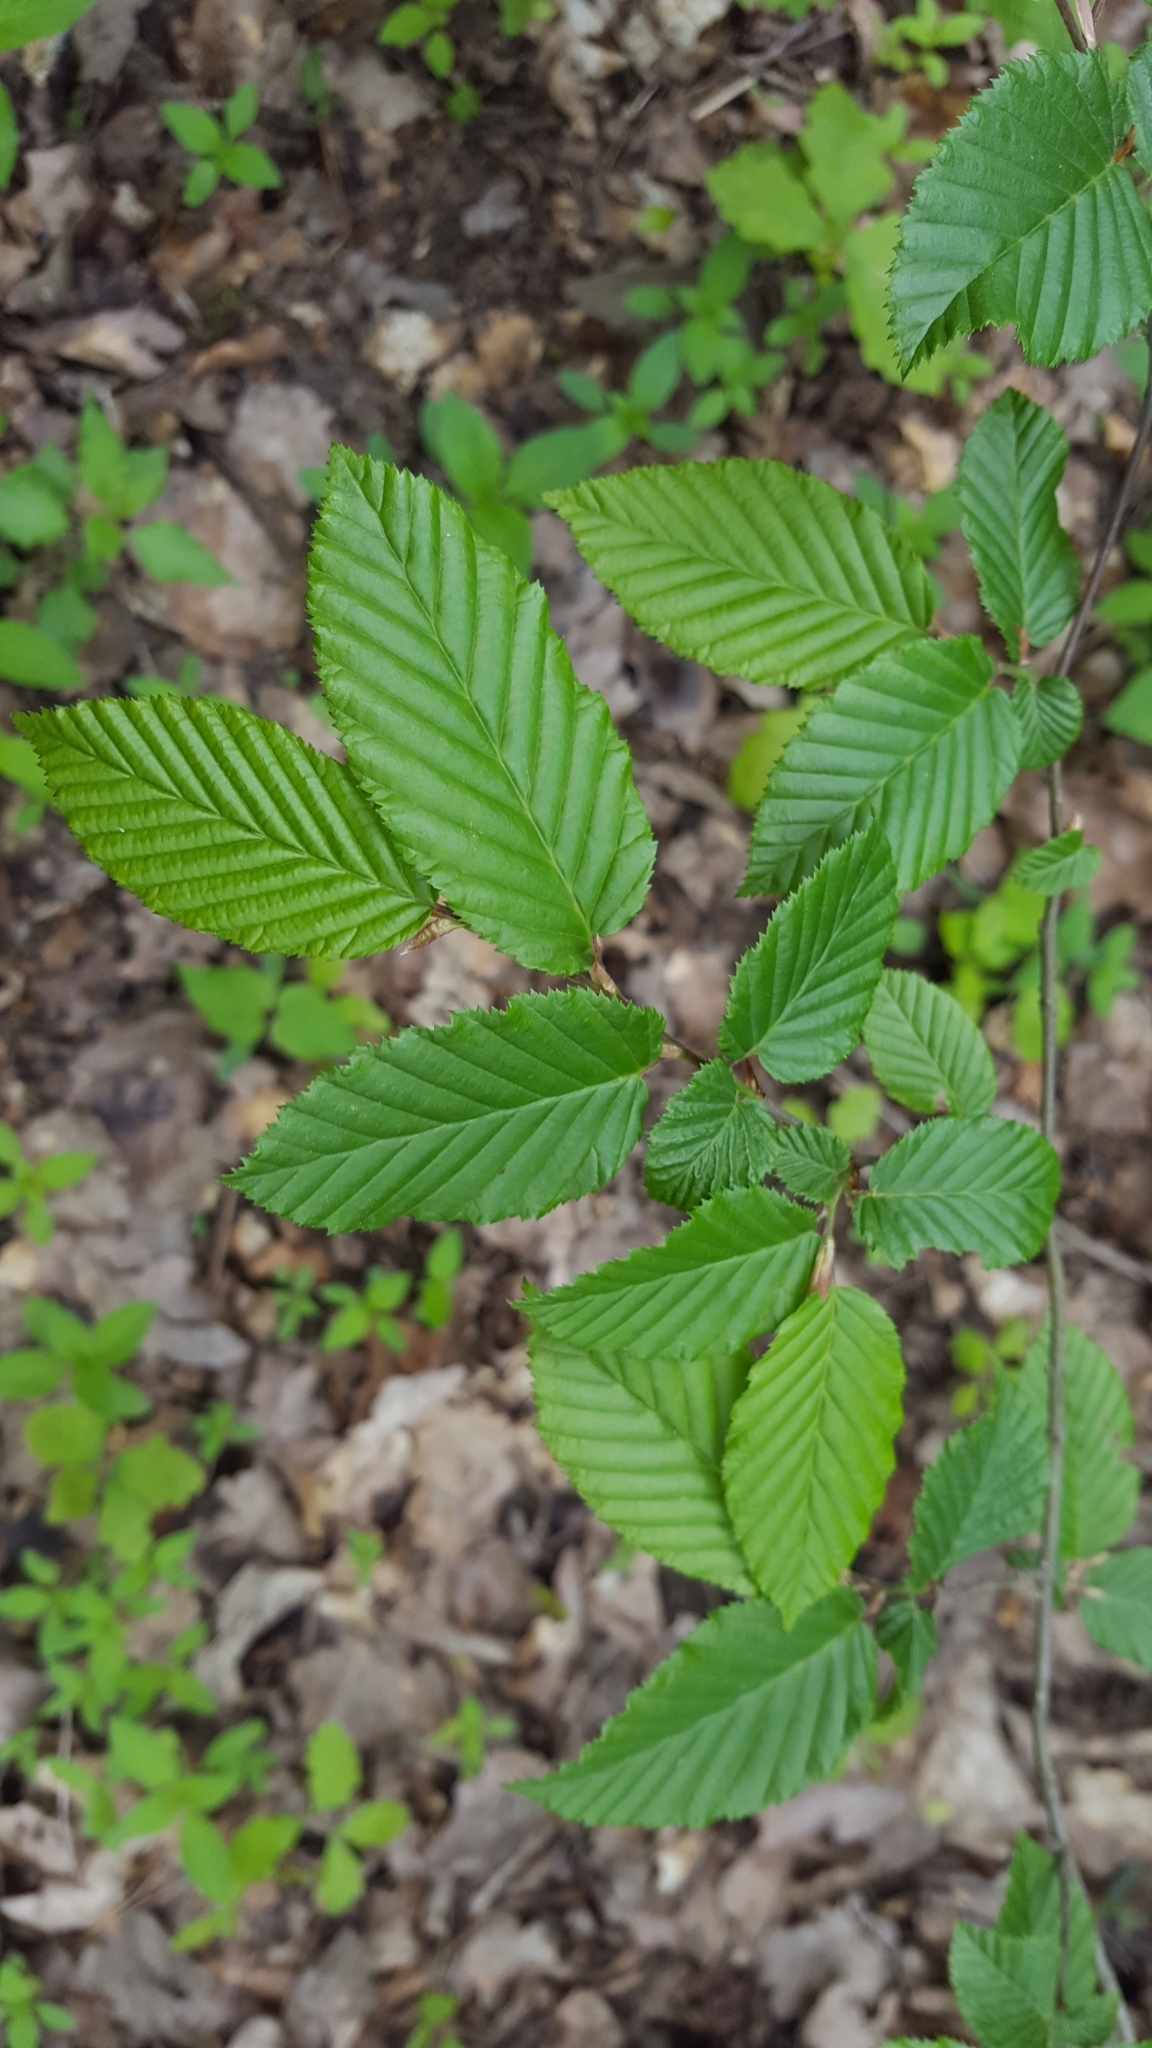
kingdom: Plantae
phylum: Tracheophyta
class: Magnoliopsida
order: Fagales
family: Betulaceae
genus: Carpinus
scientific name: Carpinus betulus
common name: Hornbeam
